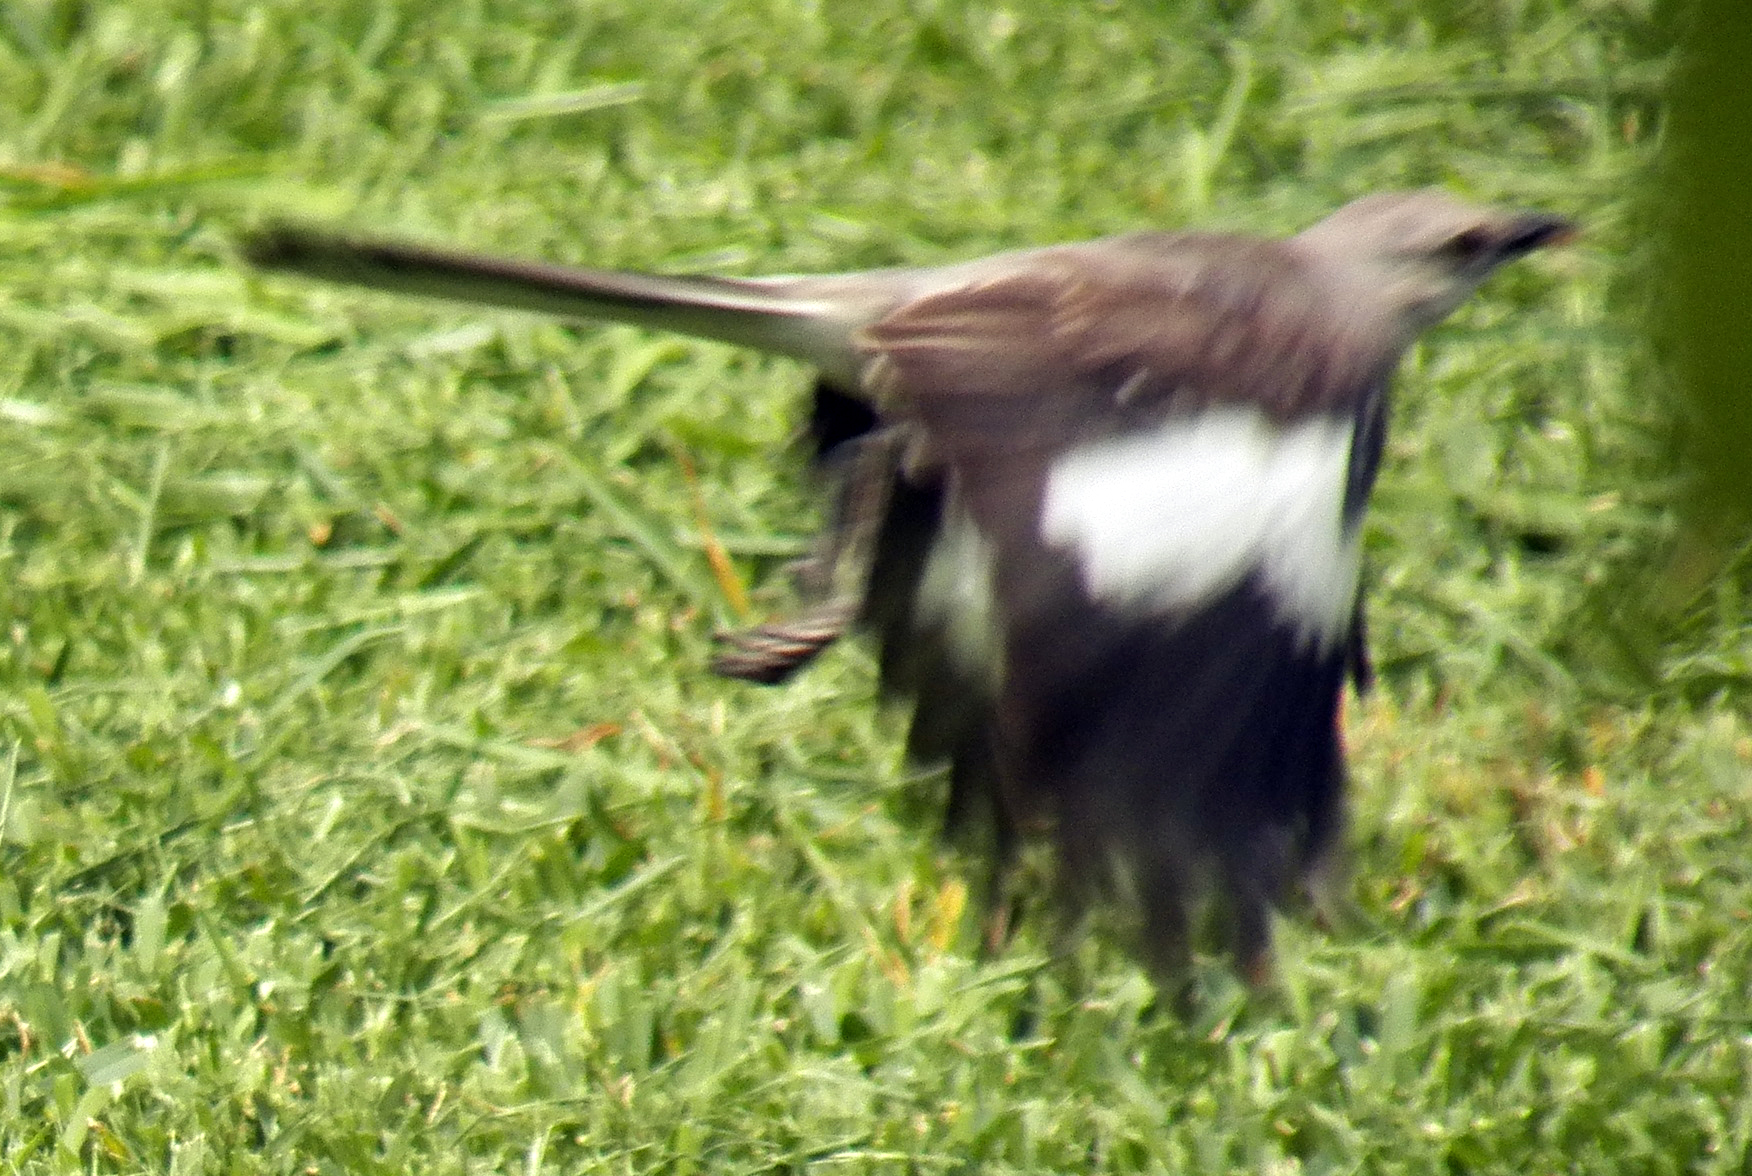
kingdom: Animalia
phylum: Chordata
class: Aves
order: Passeriformes
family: Mimidae
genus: Mimus
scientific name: Mimus polyglottos
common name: Northern mockingbird
